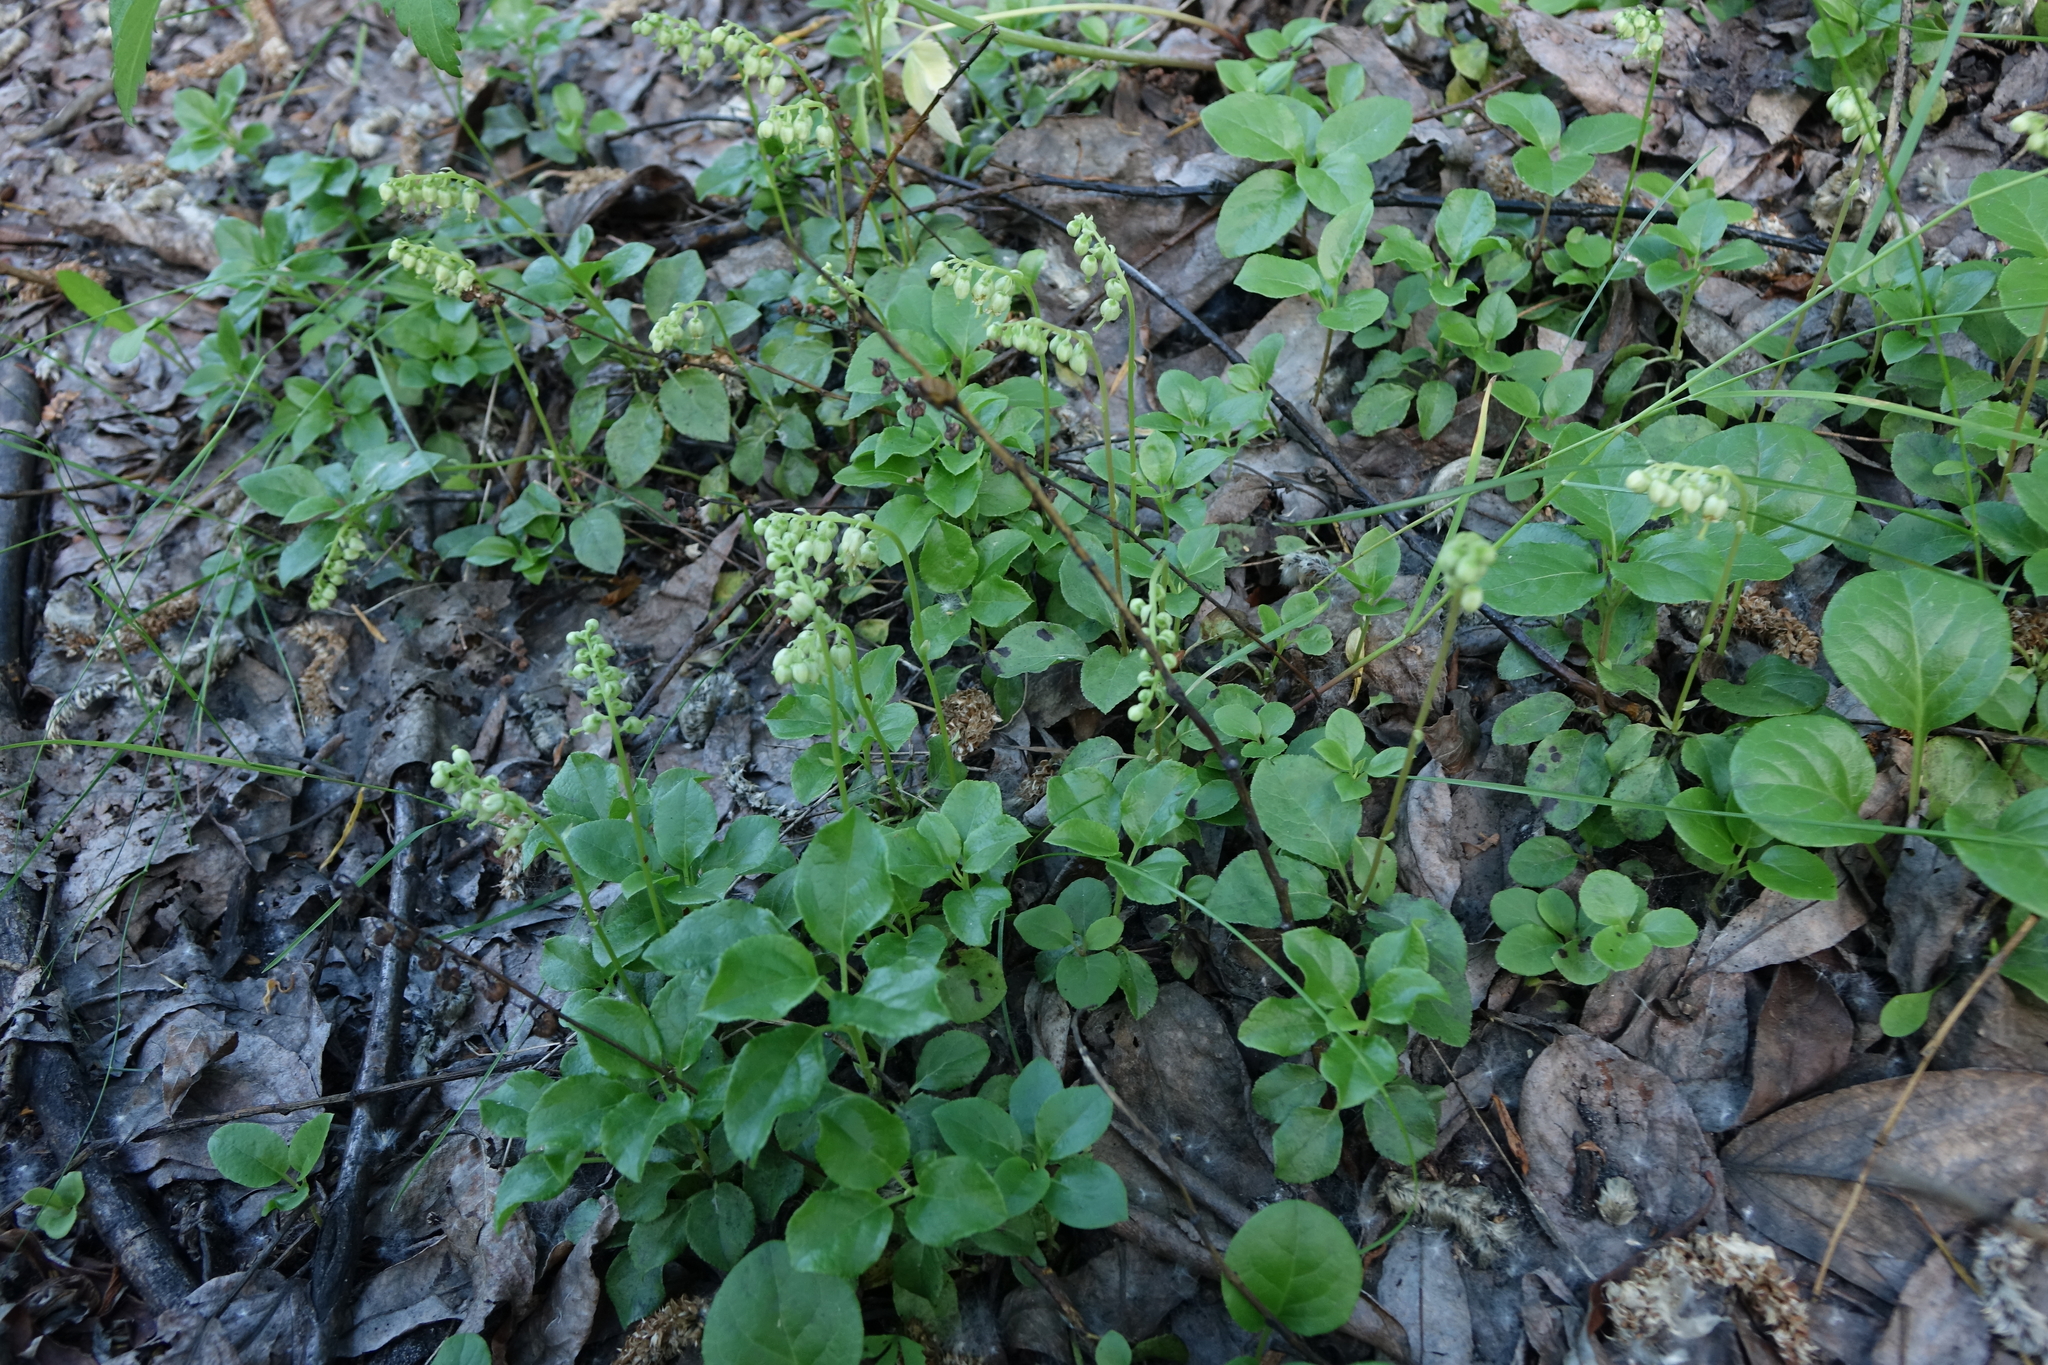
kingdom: Plantae
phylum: Tracheophyta
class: Magnoliopsida
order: Ericales
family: Ericaceae
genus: Orthilia
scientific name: Orthilia secunda
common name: One-sided orthilia
